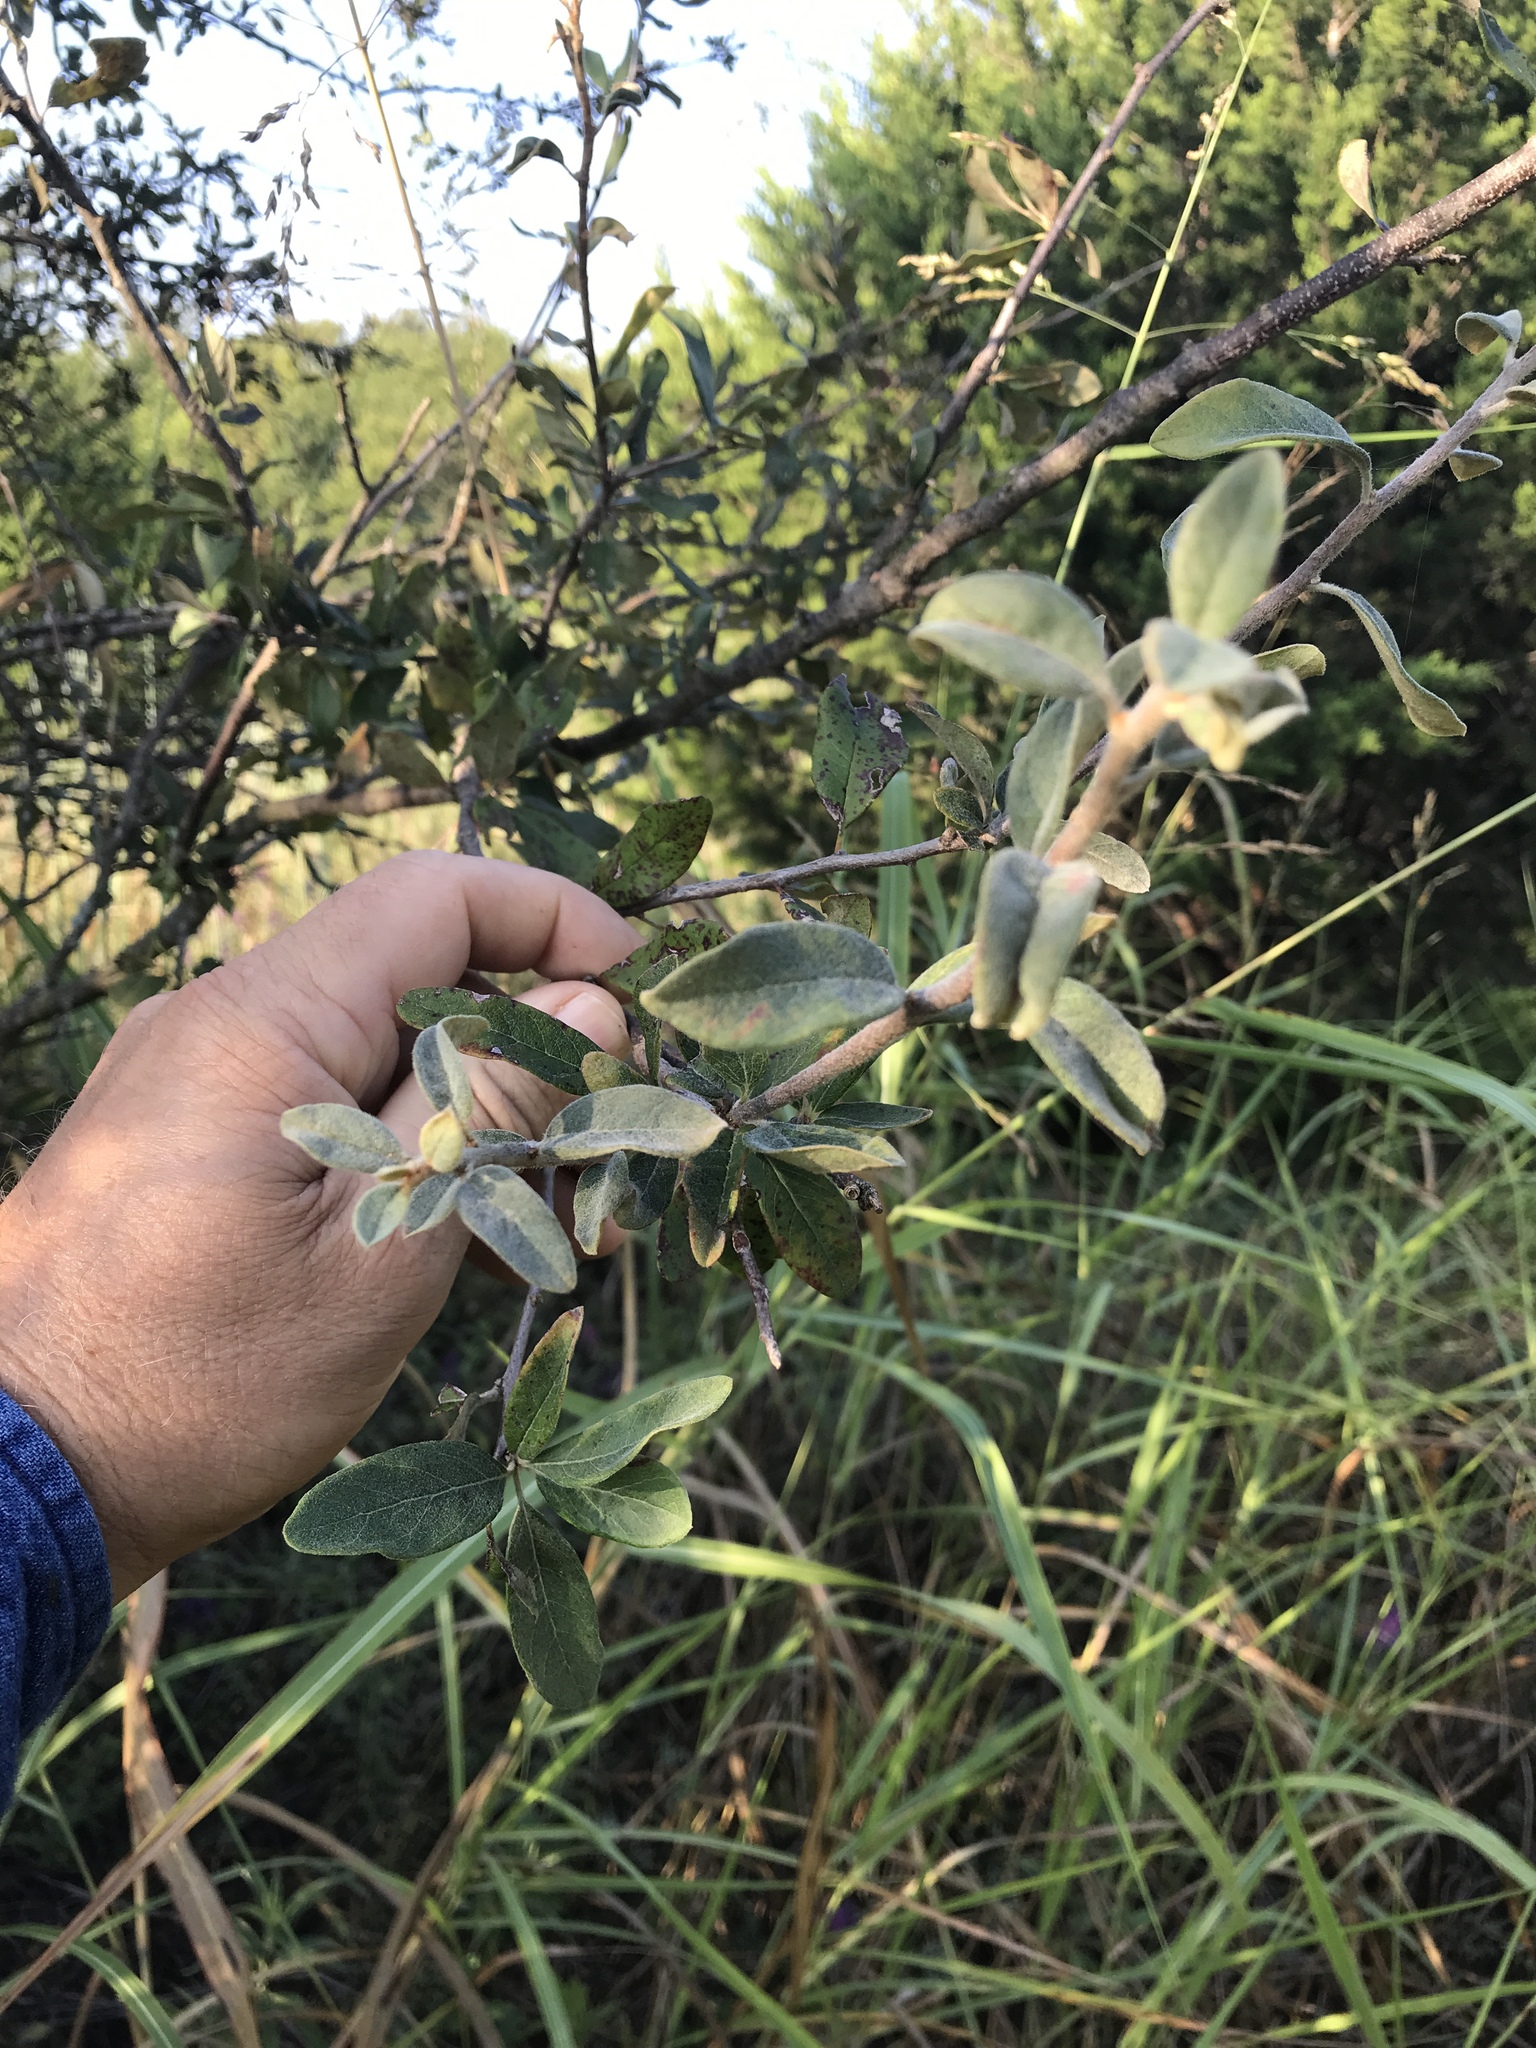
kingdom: Plantae
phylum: Tracheophyta
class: Magnoliopsida
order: Ericales
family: Sapotaceae
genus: Sideroxylon
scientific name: Sideroxylon lanuginosum
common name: Chittamwood
